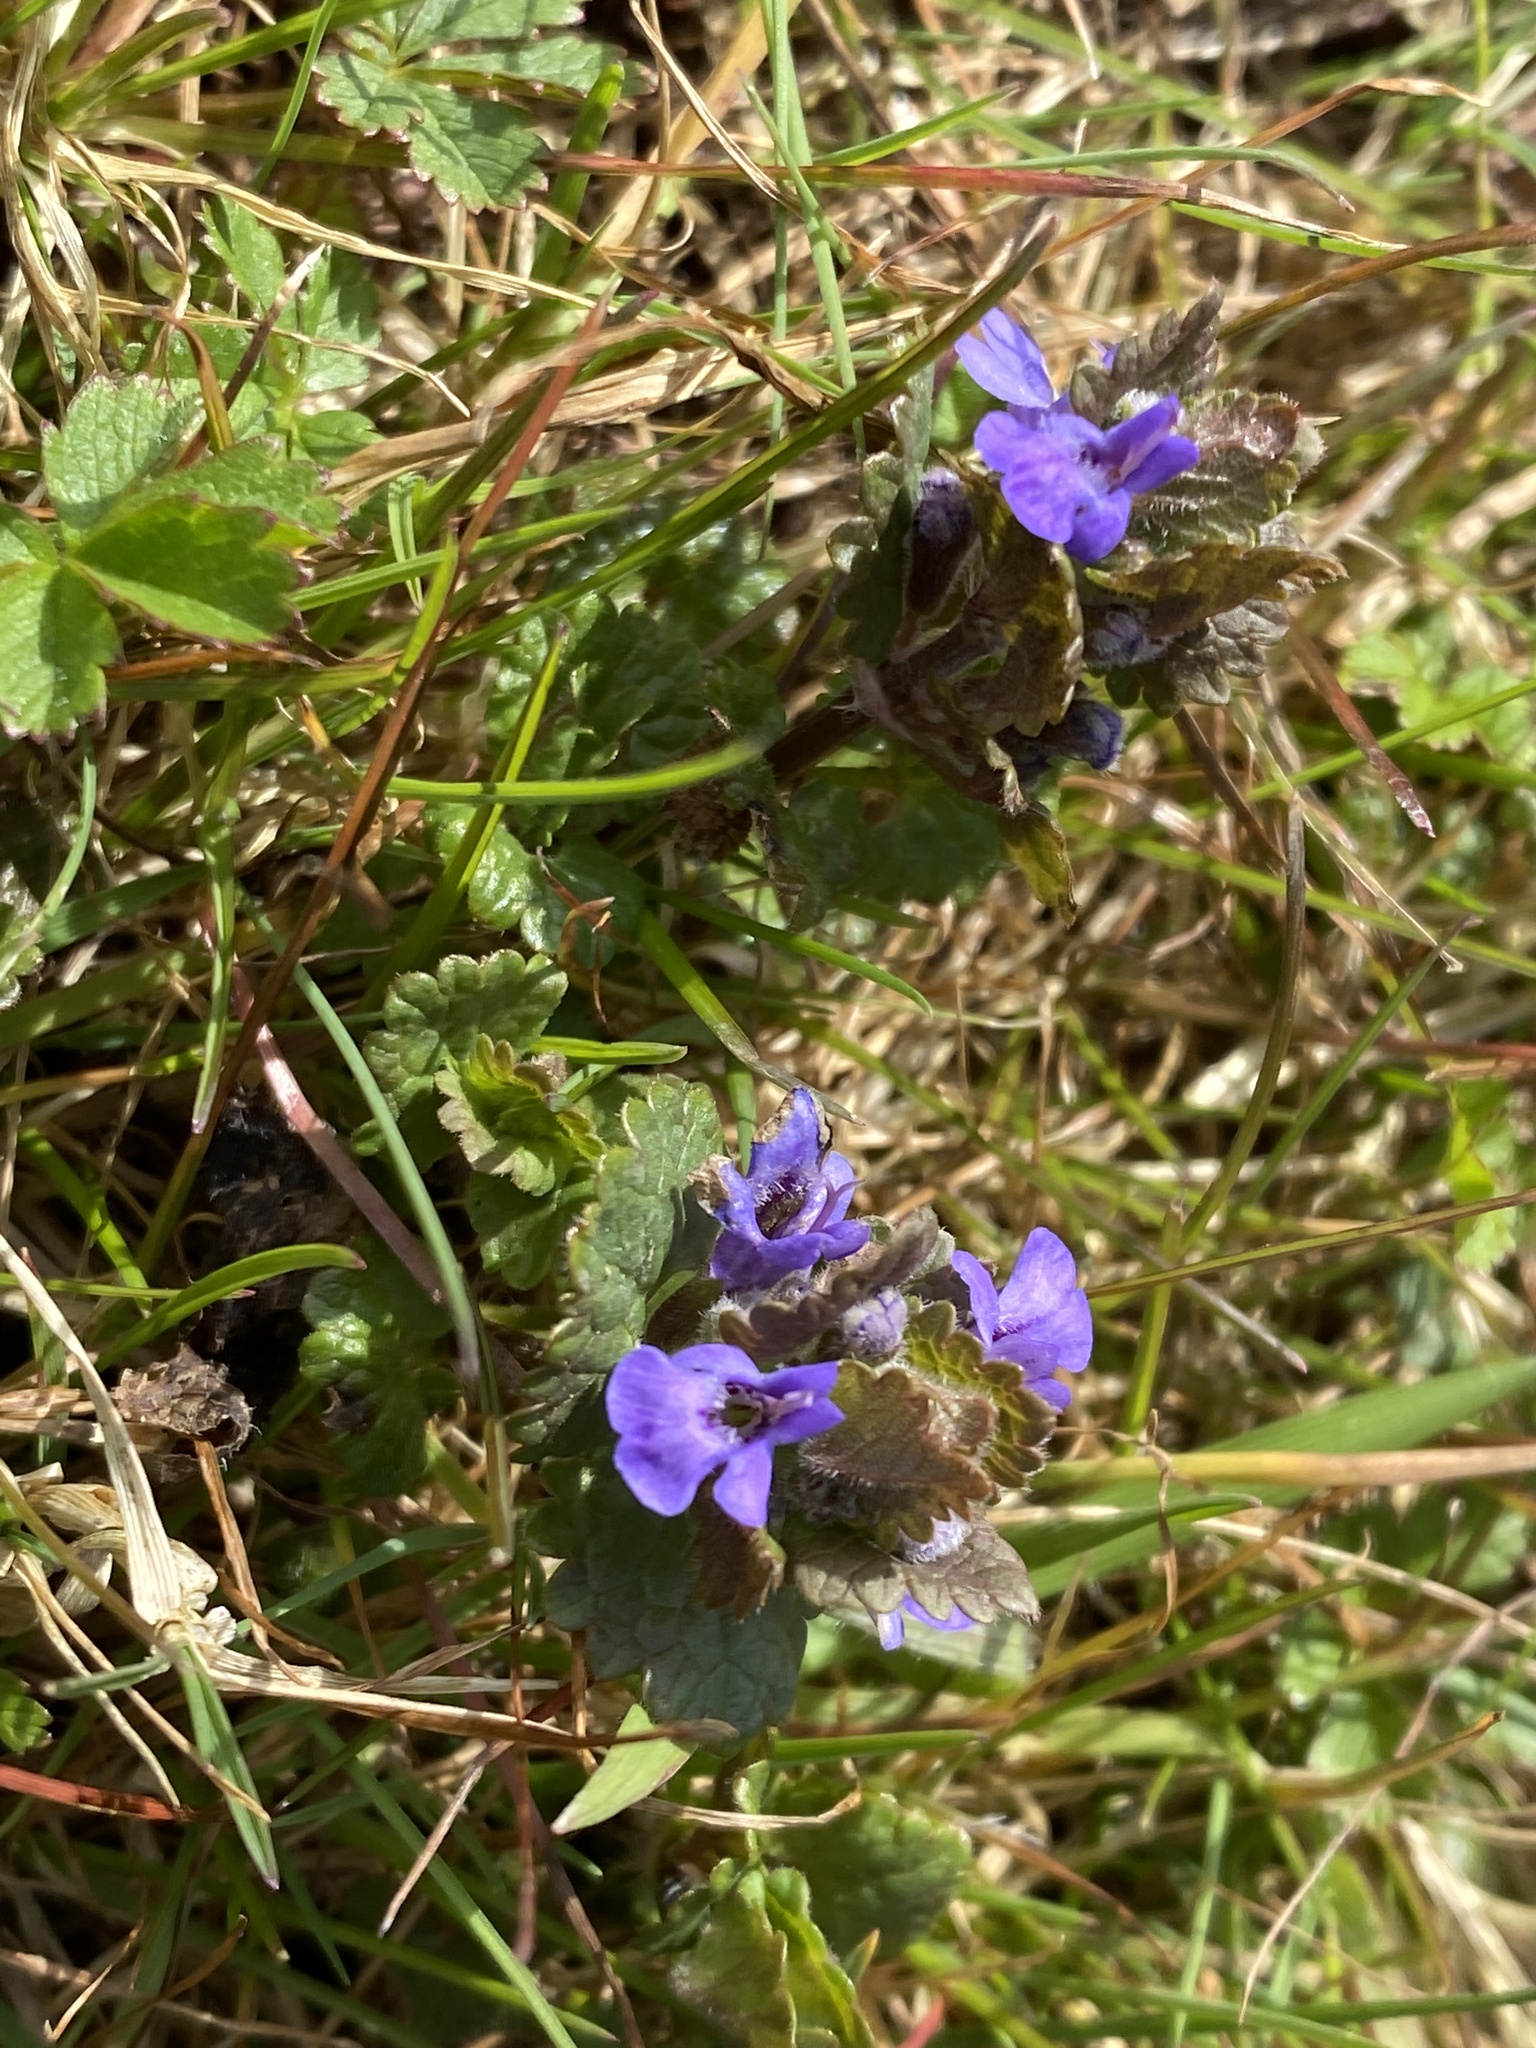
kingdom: Plantae
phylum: Tracheophyta
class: Magnoliopsida
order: Lamiales
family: Lamiaceae
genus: Glechoma
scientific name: Glechoma hederacea
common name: Ground ivy
